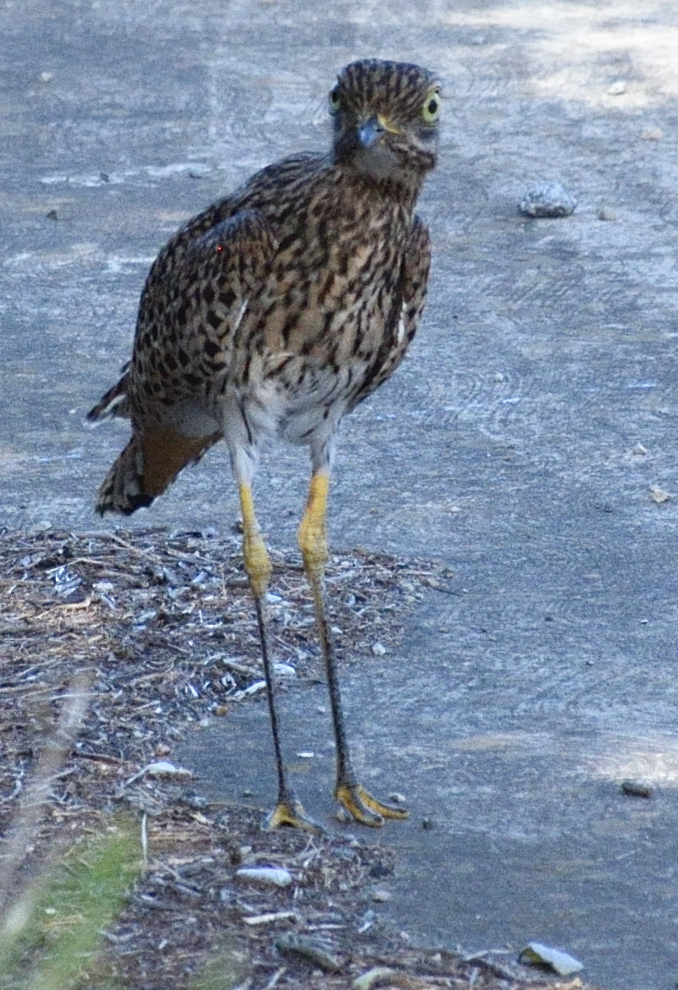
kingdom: Animalia
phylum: Chordata
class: Aves
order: Charadriiformes
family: Burhinidae
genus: Burhinus
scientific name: Burhinus capensis
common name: Spotted thick-knee
